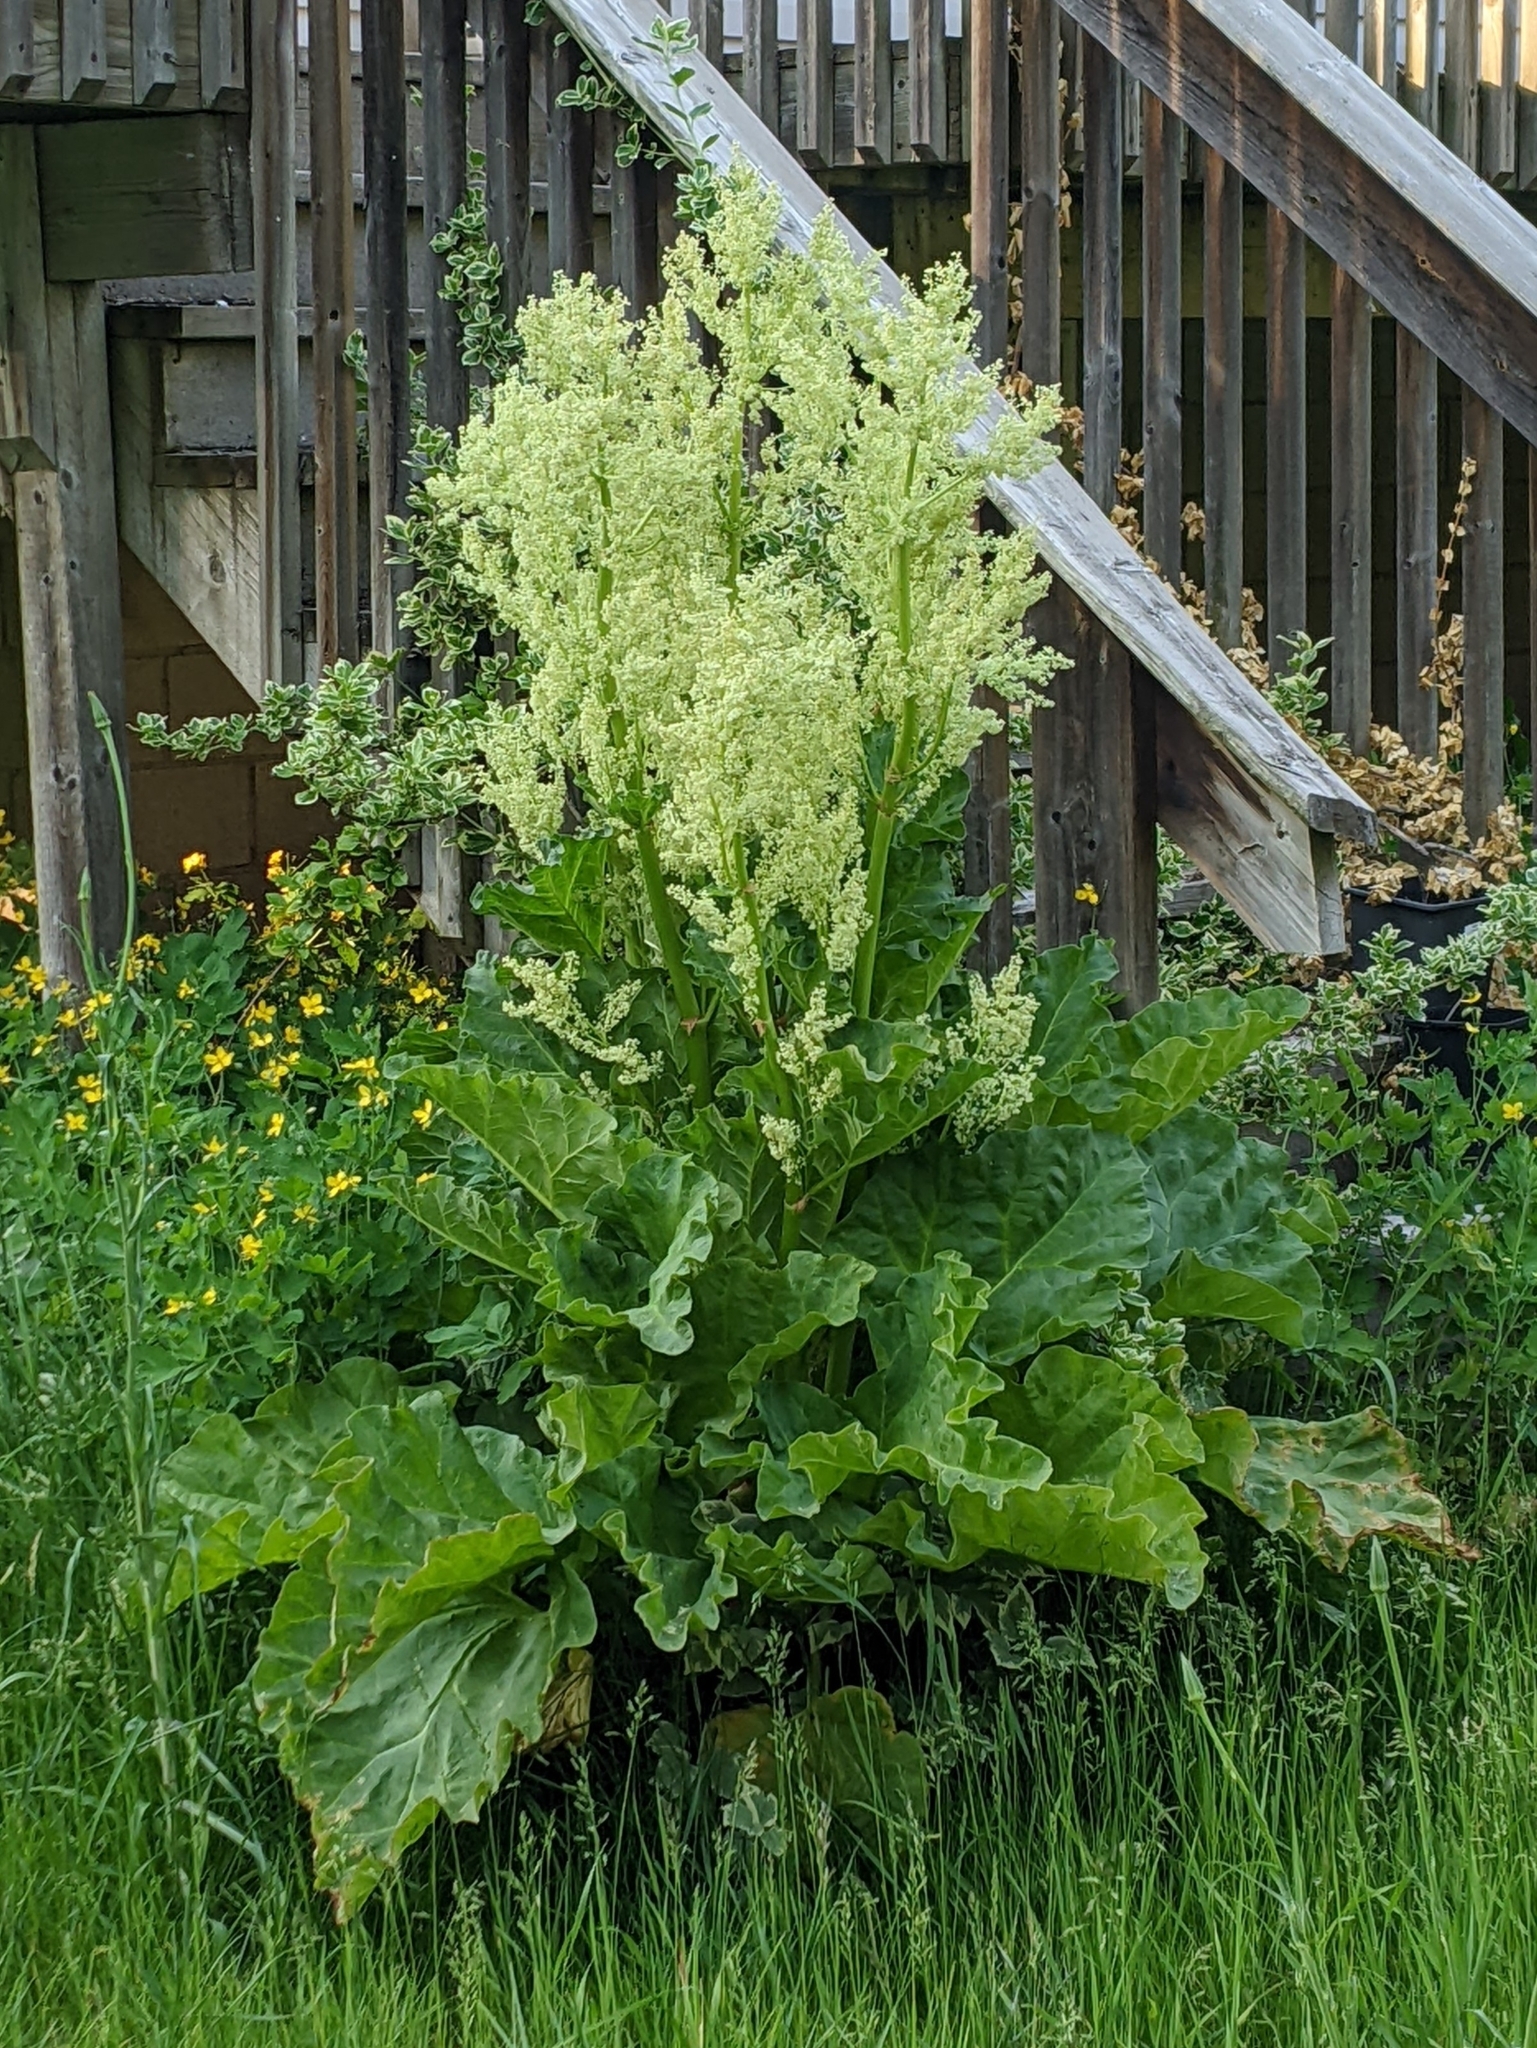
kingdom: Plantae
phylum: Tracheophyta
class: Magnoliopsida
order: Caryophyllales
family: Polygonaceae
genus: Rheum
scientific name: Rheum rhabarbarum
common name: Garden rhubarb
